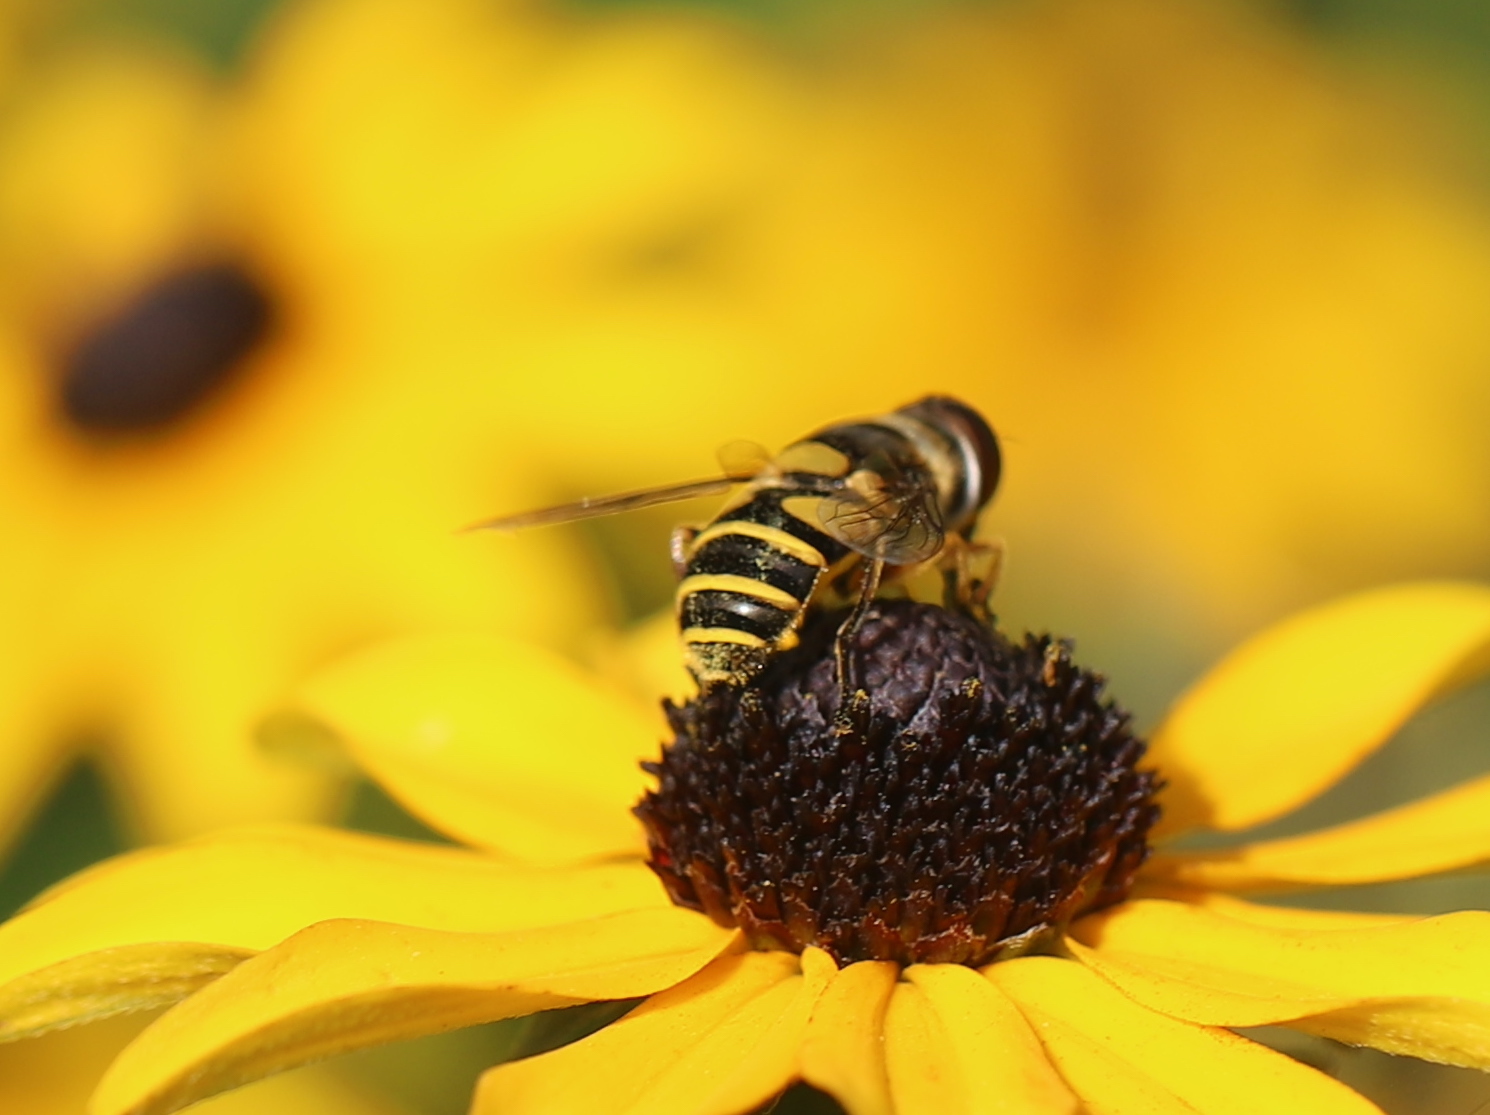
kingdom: Animalia
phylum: Arthropoda
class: Insecta
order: Diptera
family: Syrphidae
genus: Eristalis
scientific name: Eristalis transversa
